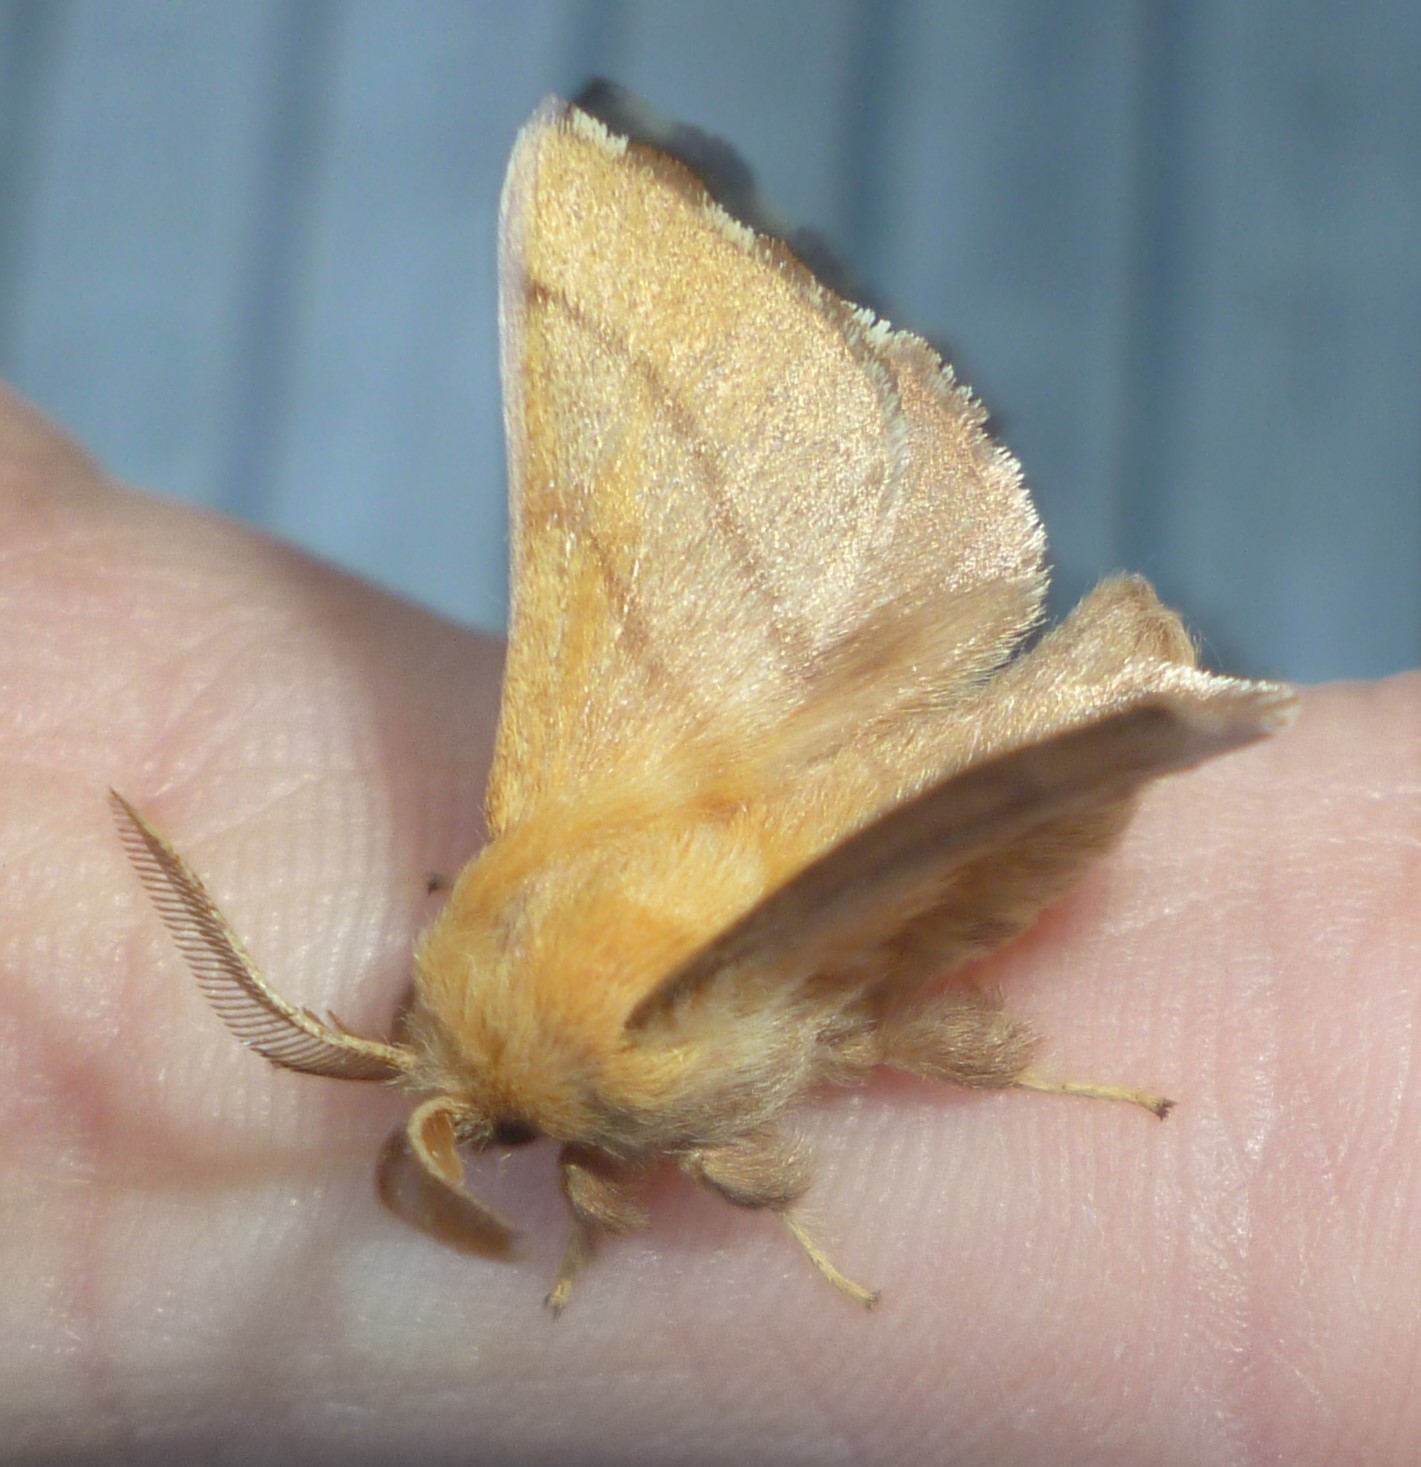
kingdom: Animalia
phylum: Arthropoda
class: Insecta
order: Lepidoptera
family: Lasiocampidae
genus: Malacosoma
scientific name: Malacosoma disstria
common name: Forest tent caterpillar
